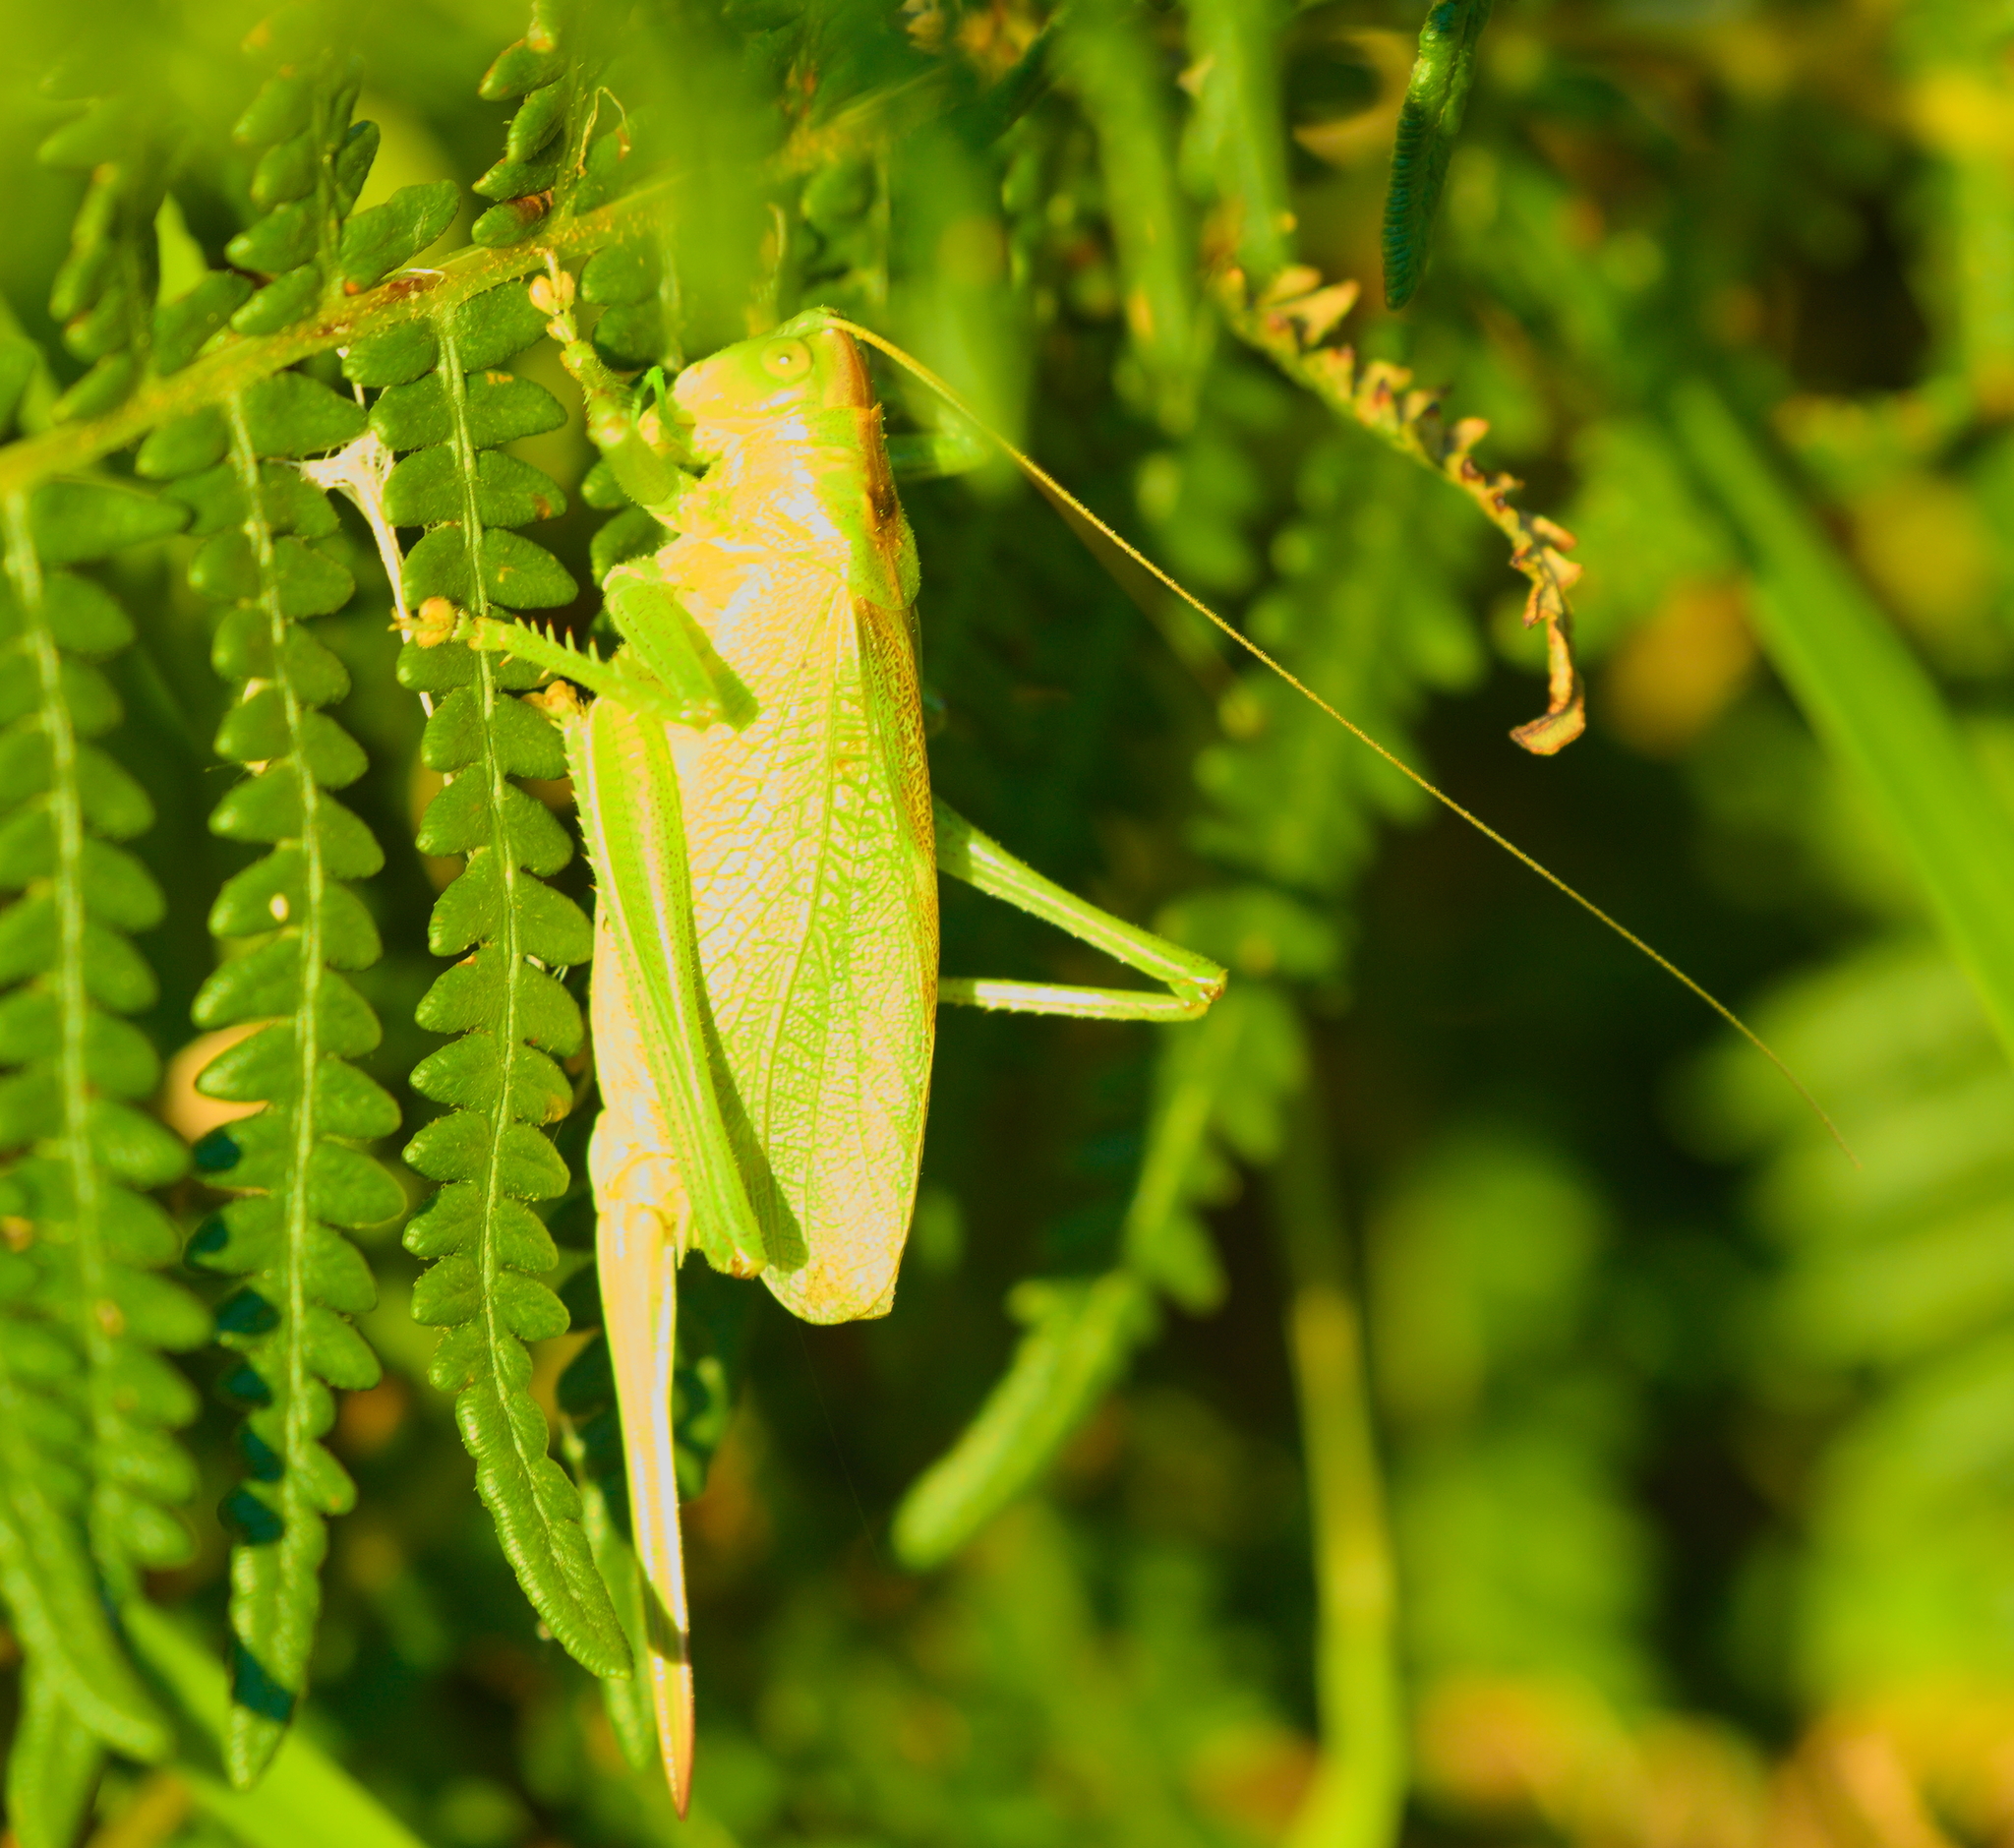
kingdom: Animalia
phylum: Arthropoda
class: Insecta
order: Orthoptera
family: Tettigoniidae
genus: Tettigonia
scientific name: Tettigonia cantans
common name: Upland green bush-cricket
